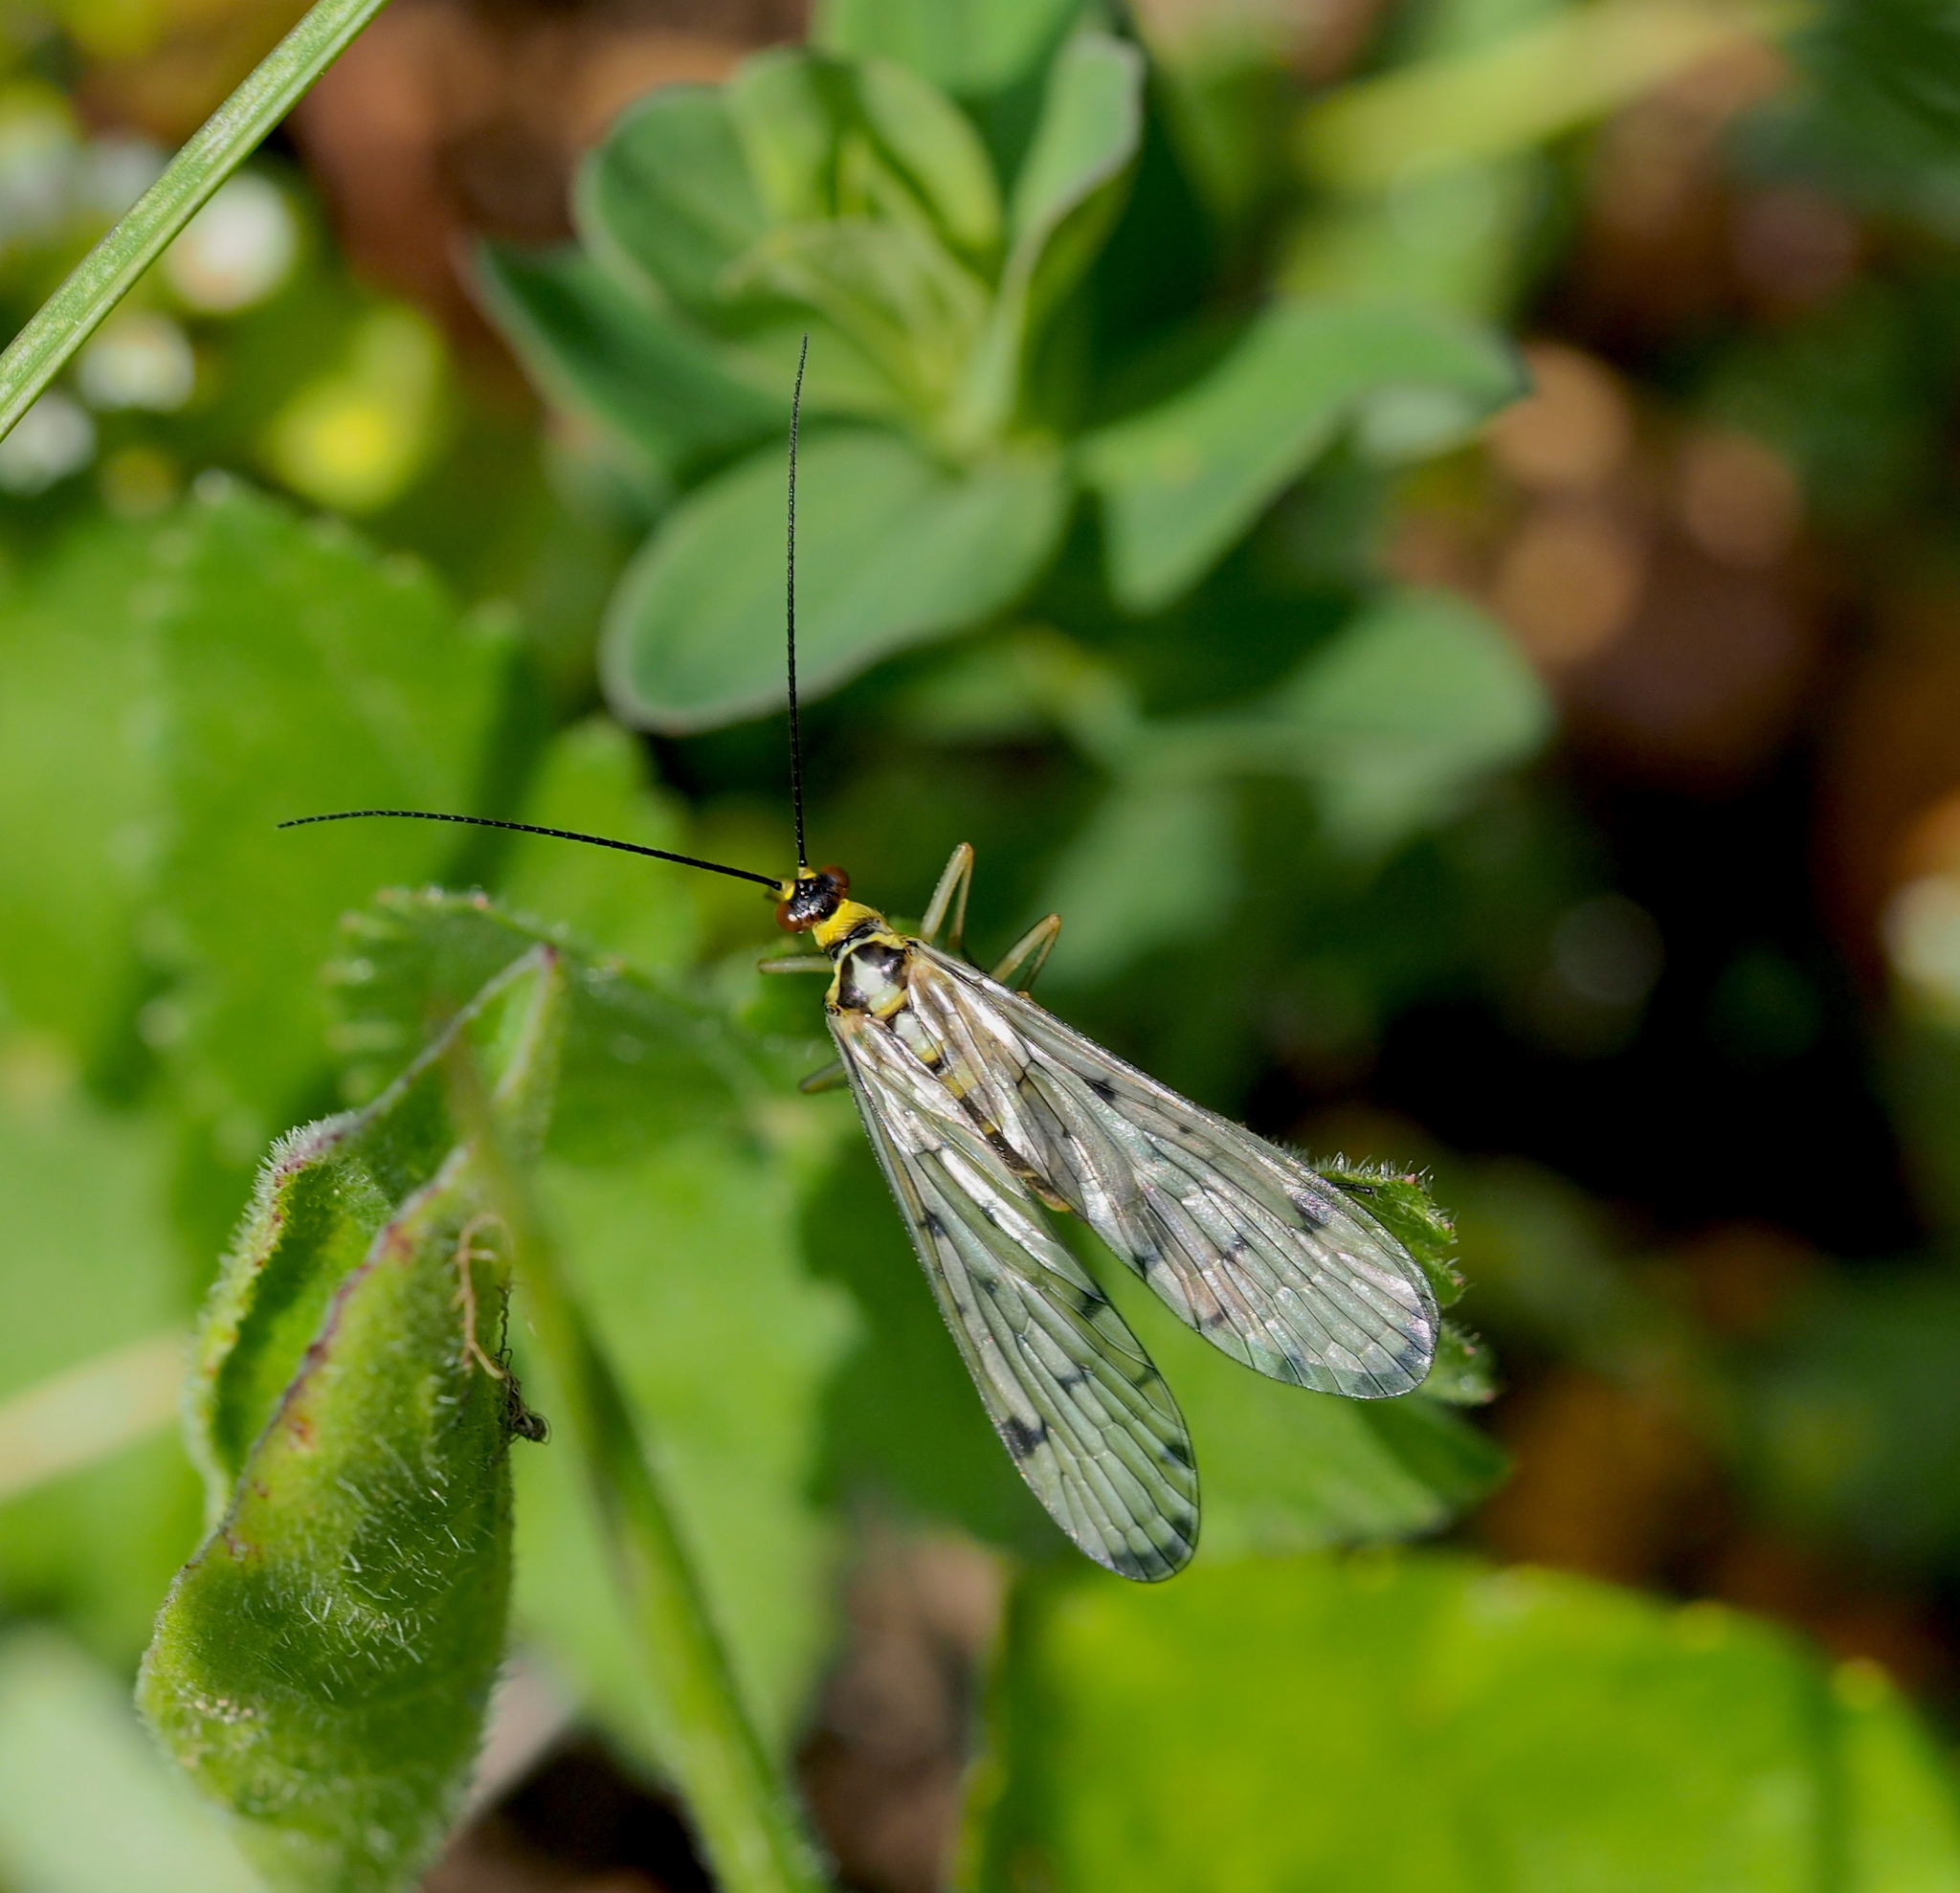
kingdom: Animalia
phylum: Arthropoda
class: Insecta
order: Mecoptera
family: Panorpidae
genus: Panorpa
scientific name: Panorpa germanica
